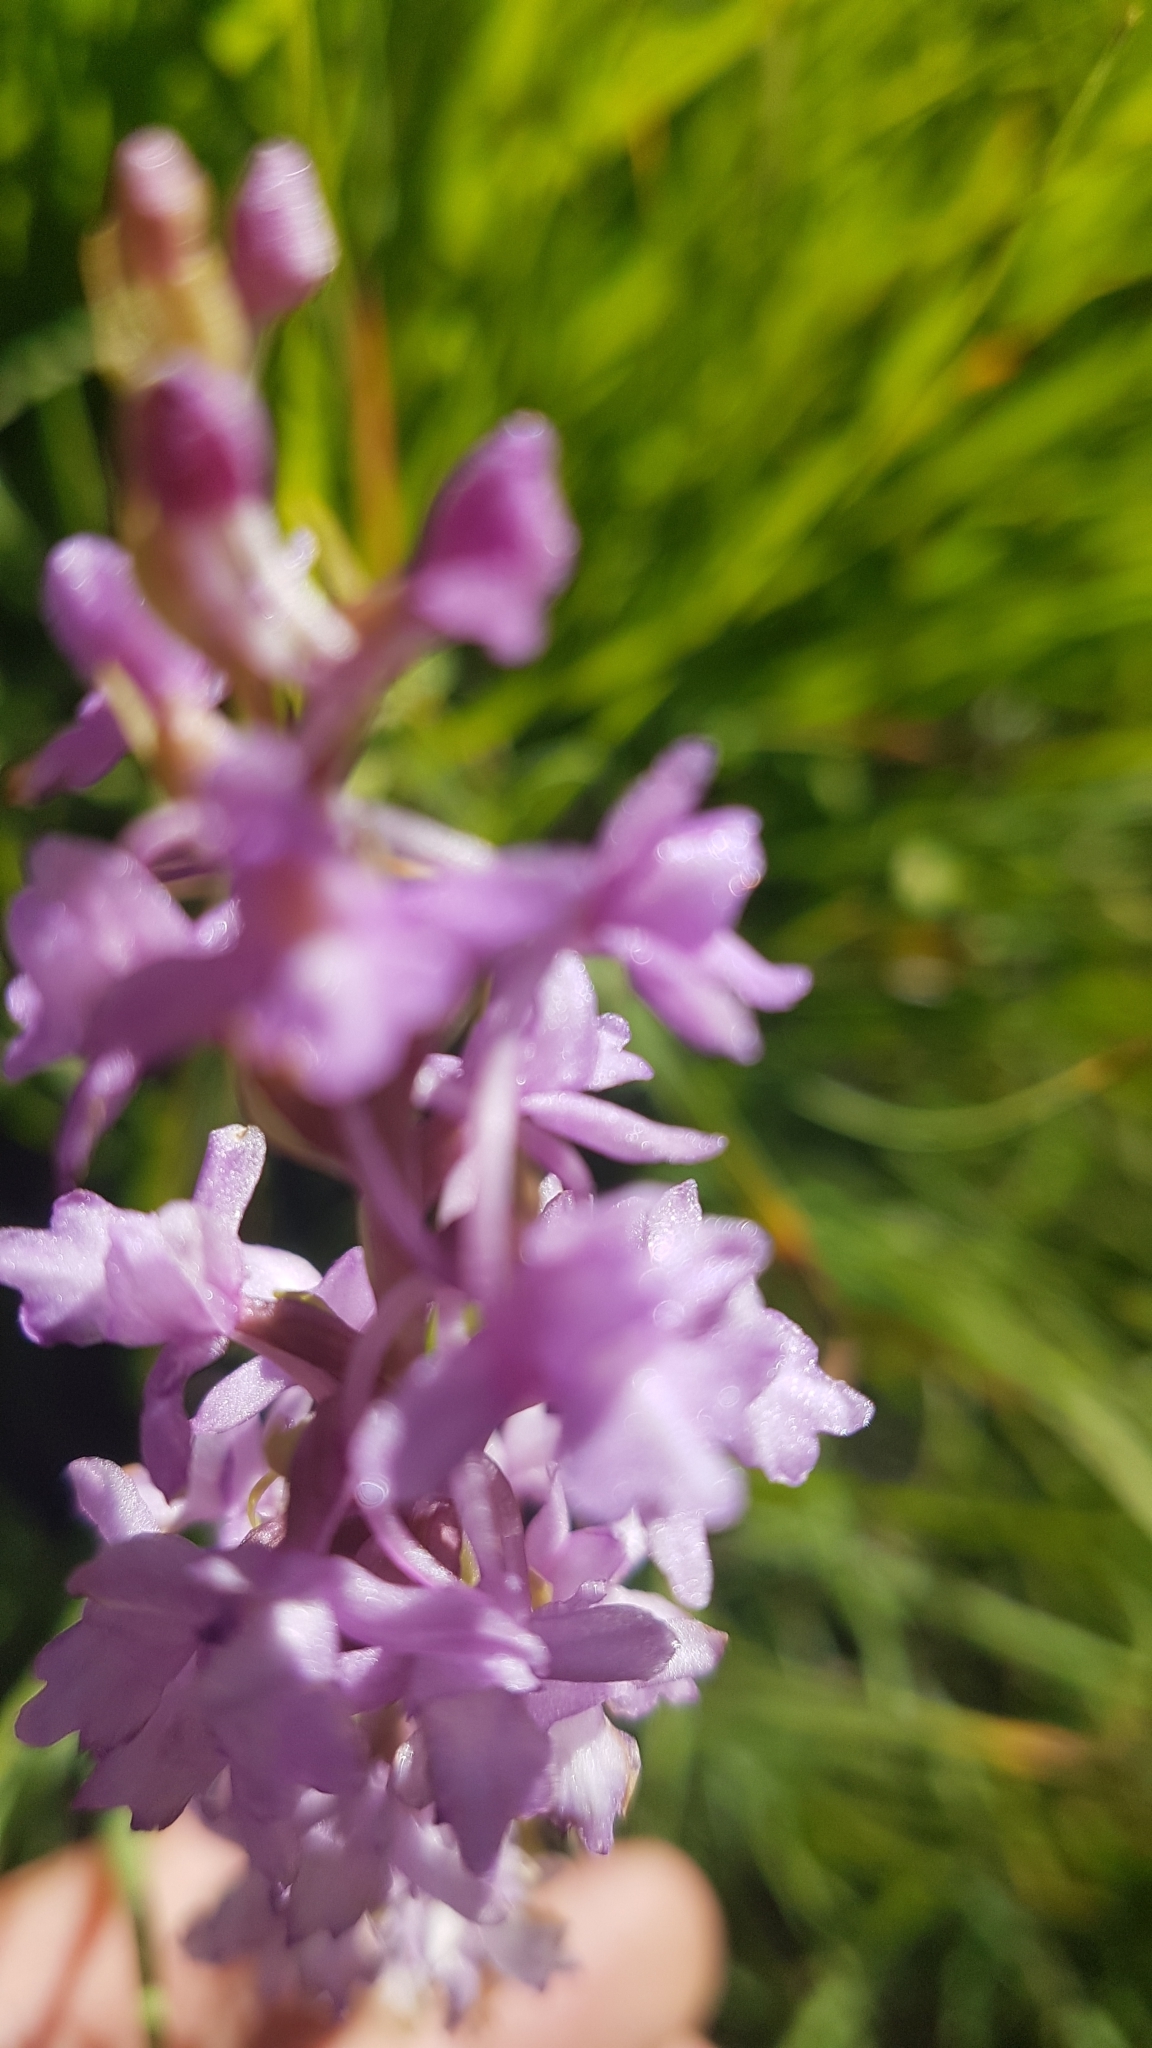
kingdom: Plantae
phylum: Tracheophyta
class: Liliopsida
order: Asparagales
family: Orchidaceae
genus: Gymnadenia
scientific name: Gymnadenia conopsea
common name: Fragrant orchid
